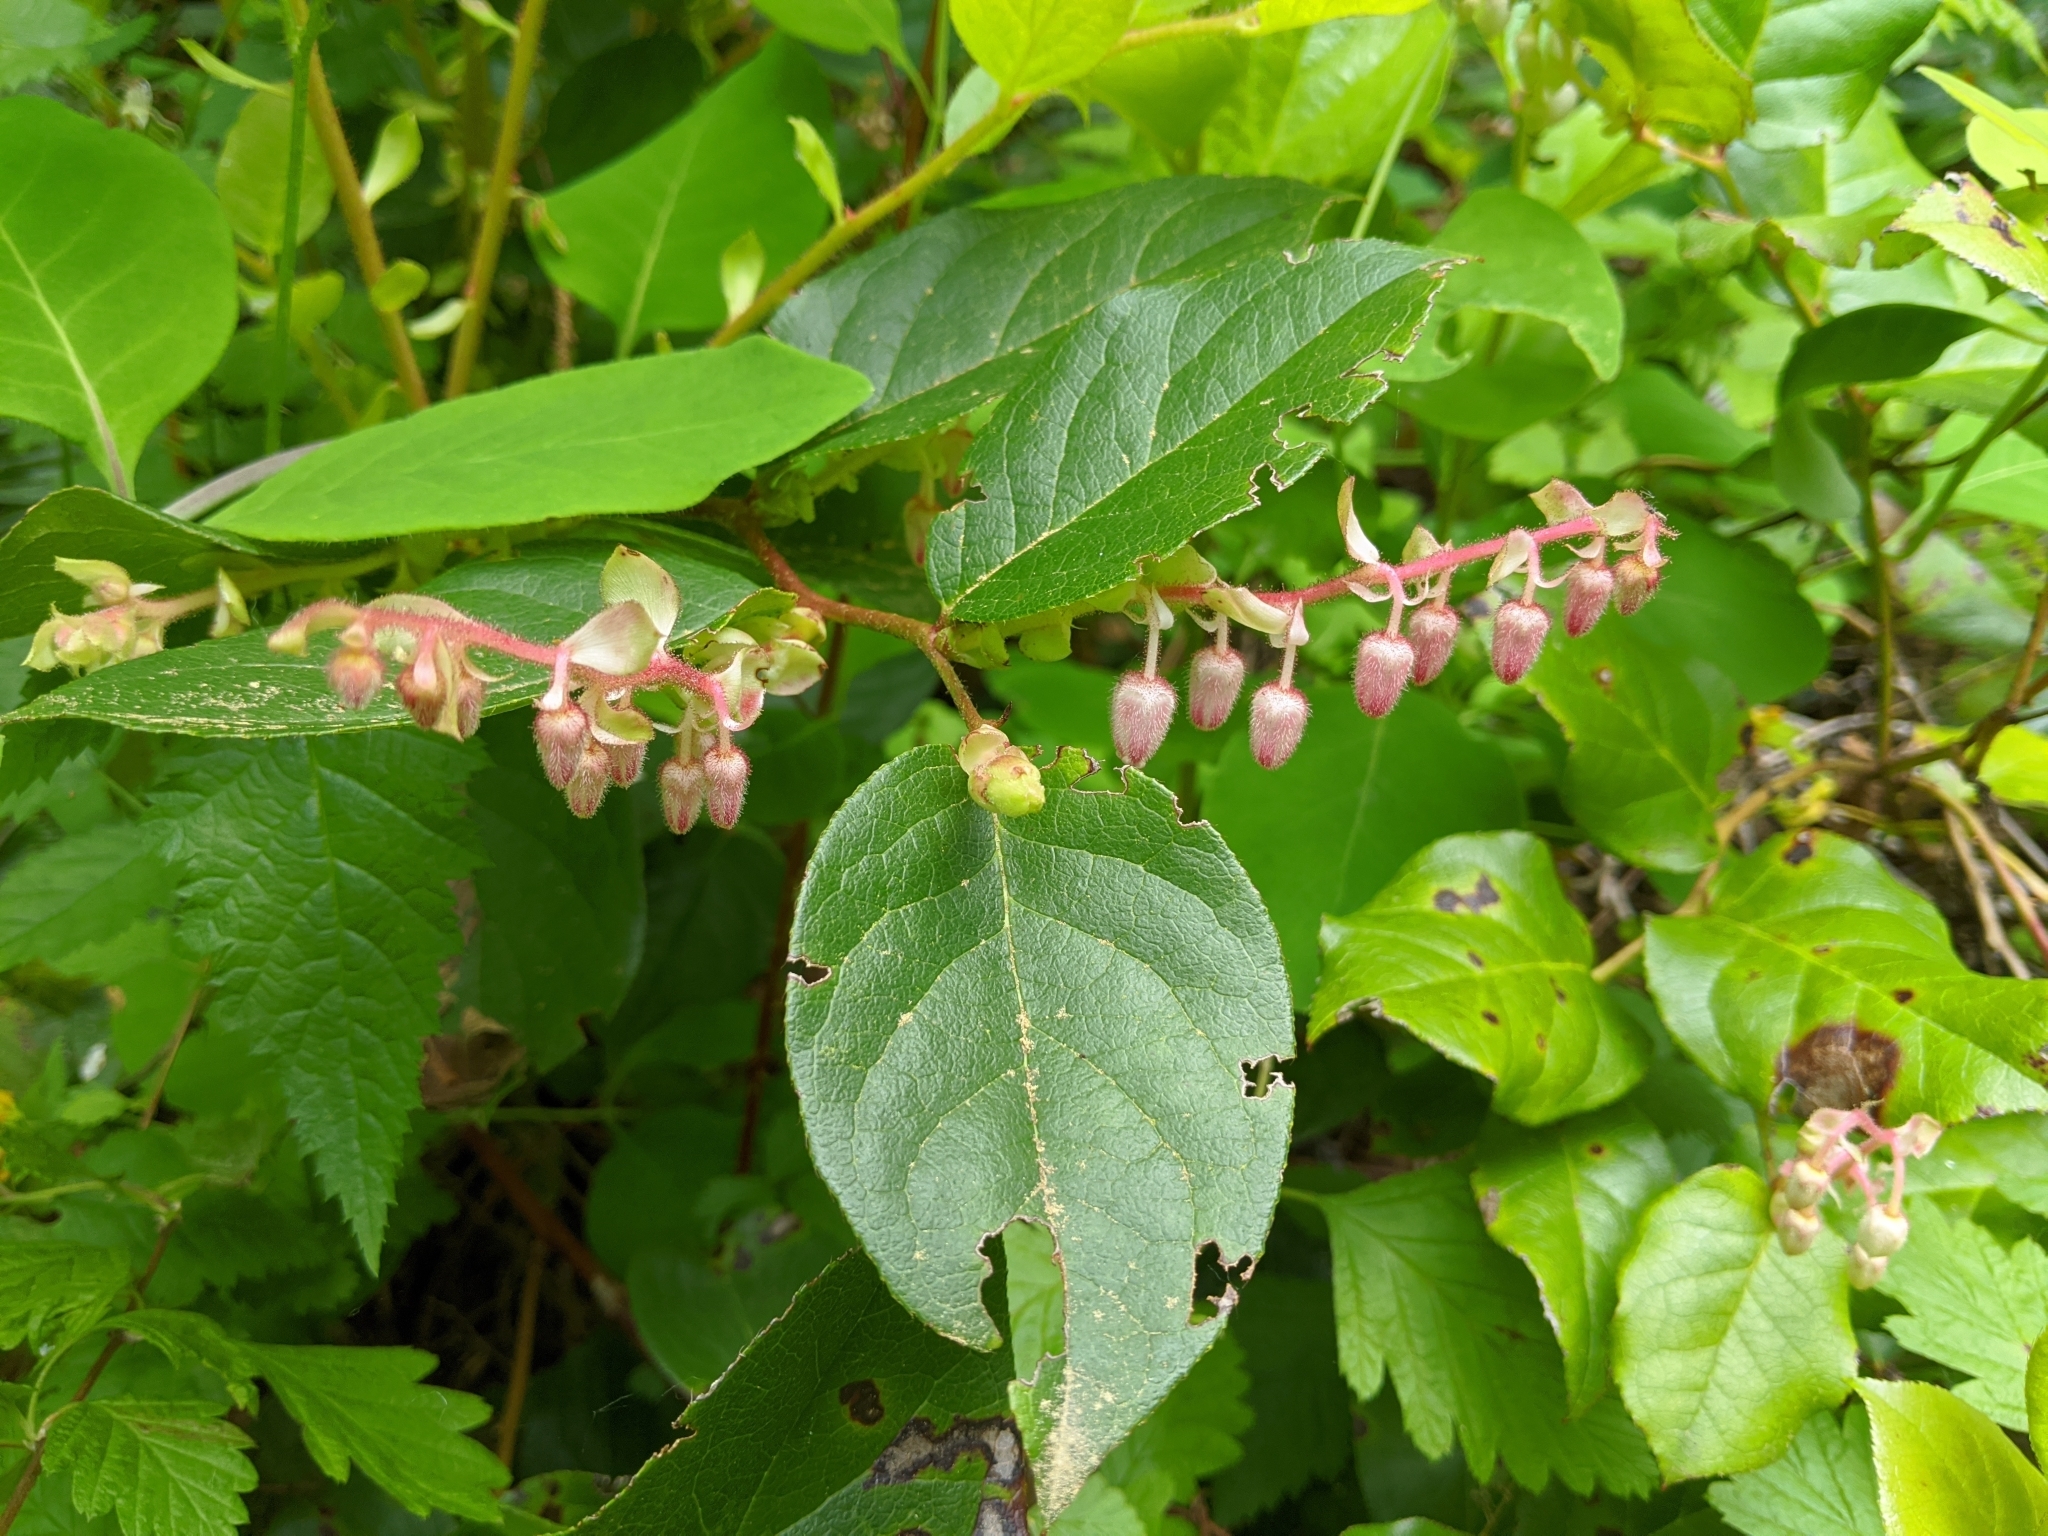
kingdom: Plantae
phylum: Tracheophyta
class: Magnoliopsida
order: Ericales
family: Ericaceae
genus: Gaultheria
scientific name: Gaultheria shallon
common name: Shallon
